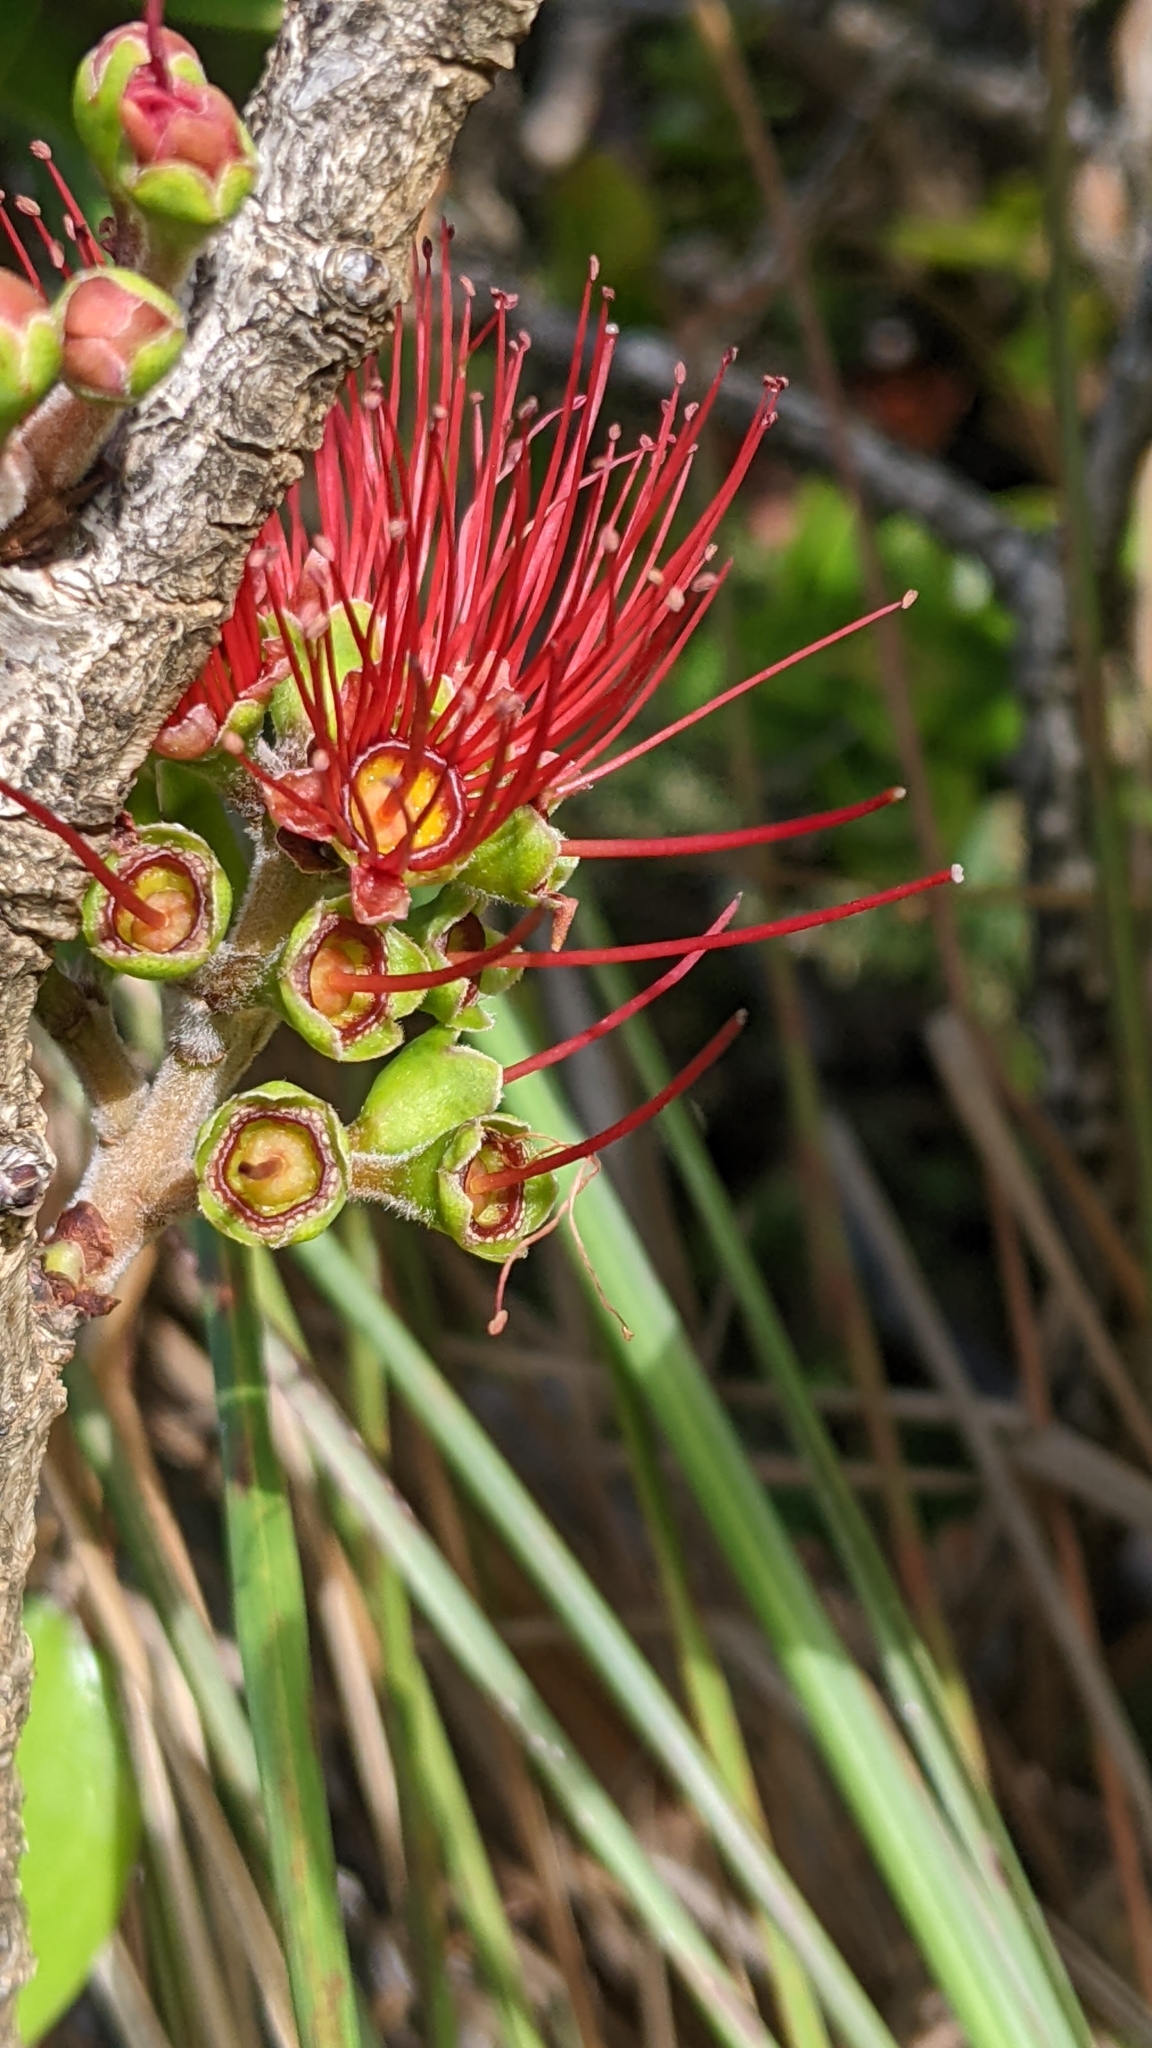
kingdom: Plantae
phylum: Tracheophyta
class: Magnoliopsida
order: Myrtales
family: Myrtaceae
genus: Metrosideros
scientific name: Metrosideros polymorpha
